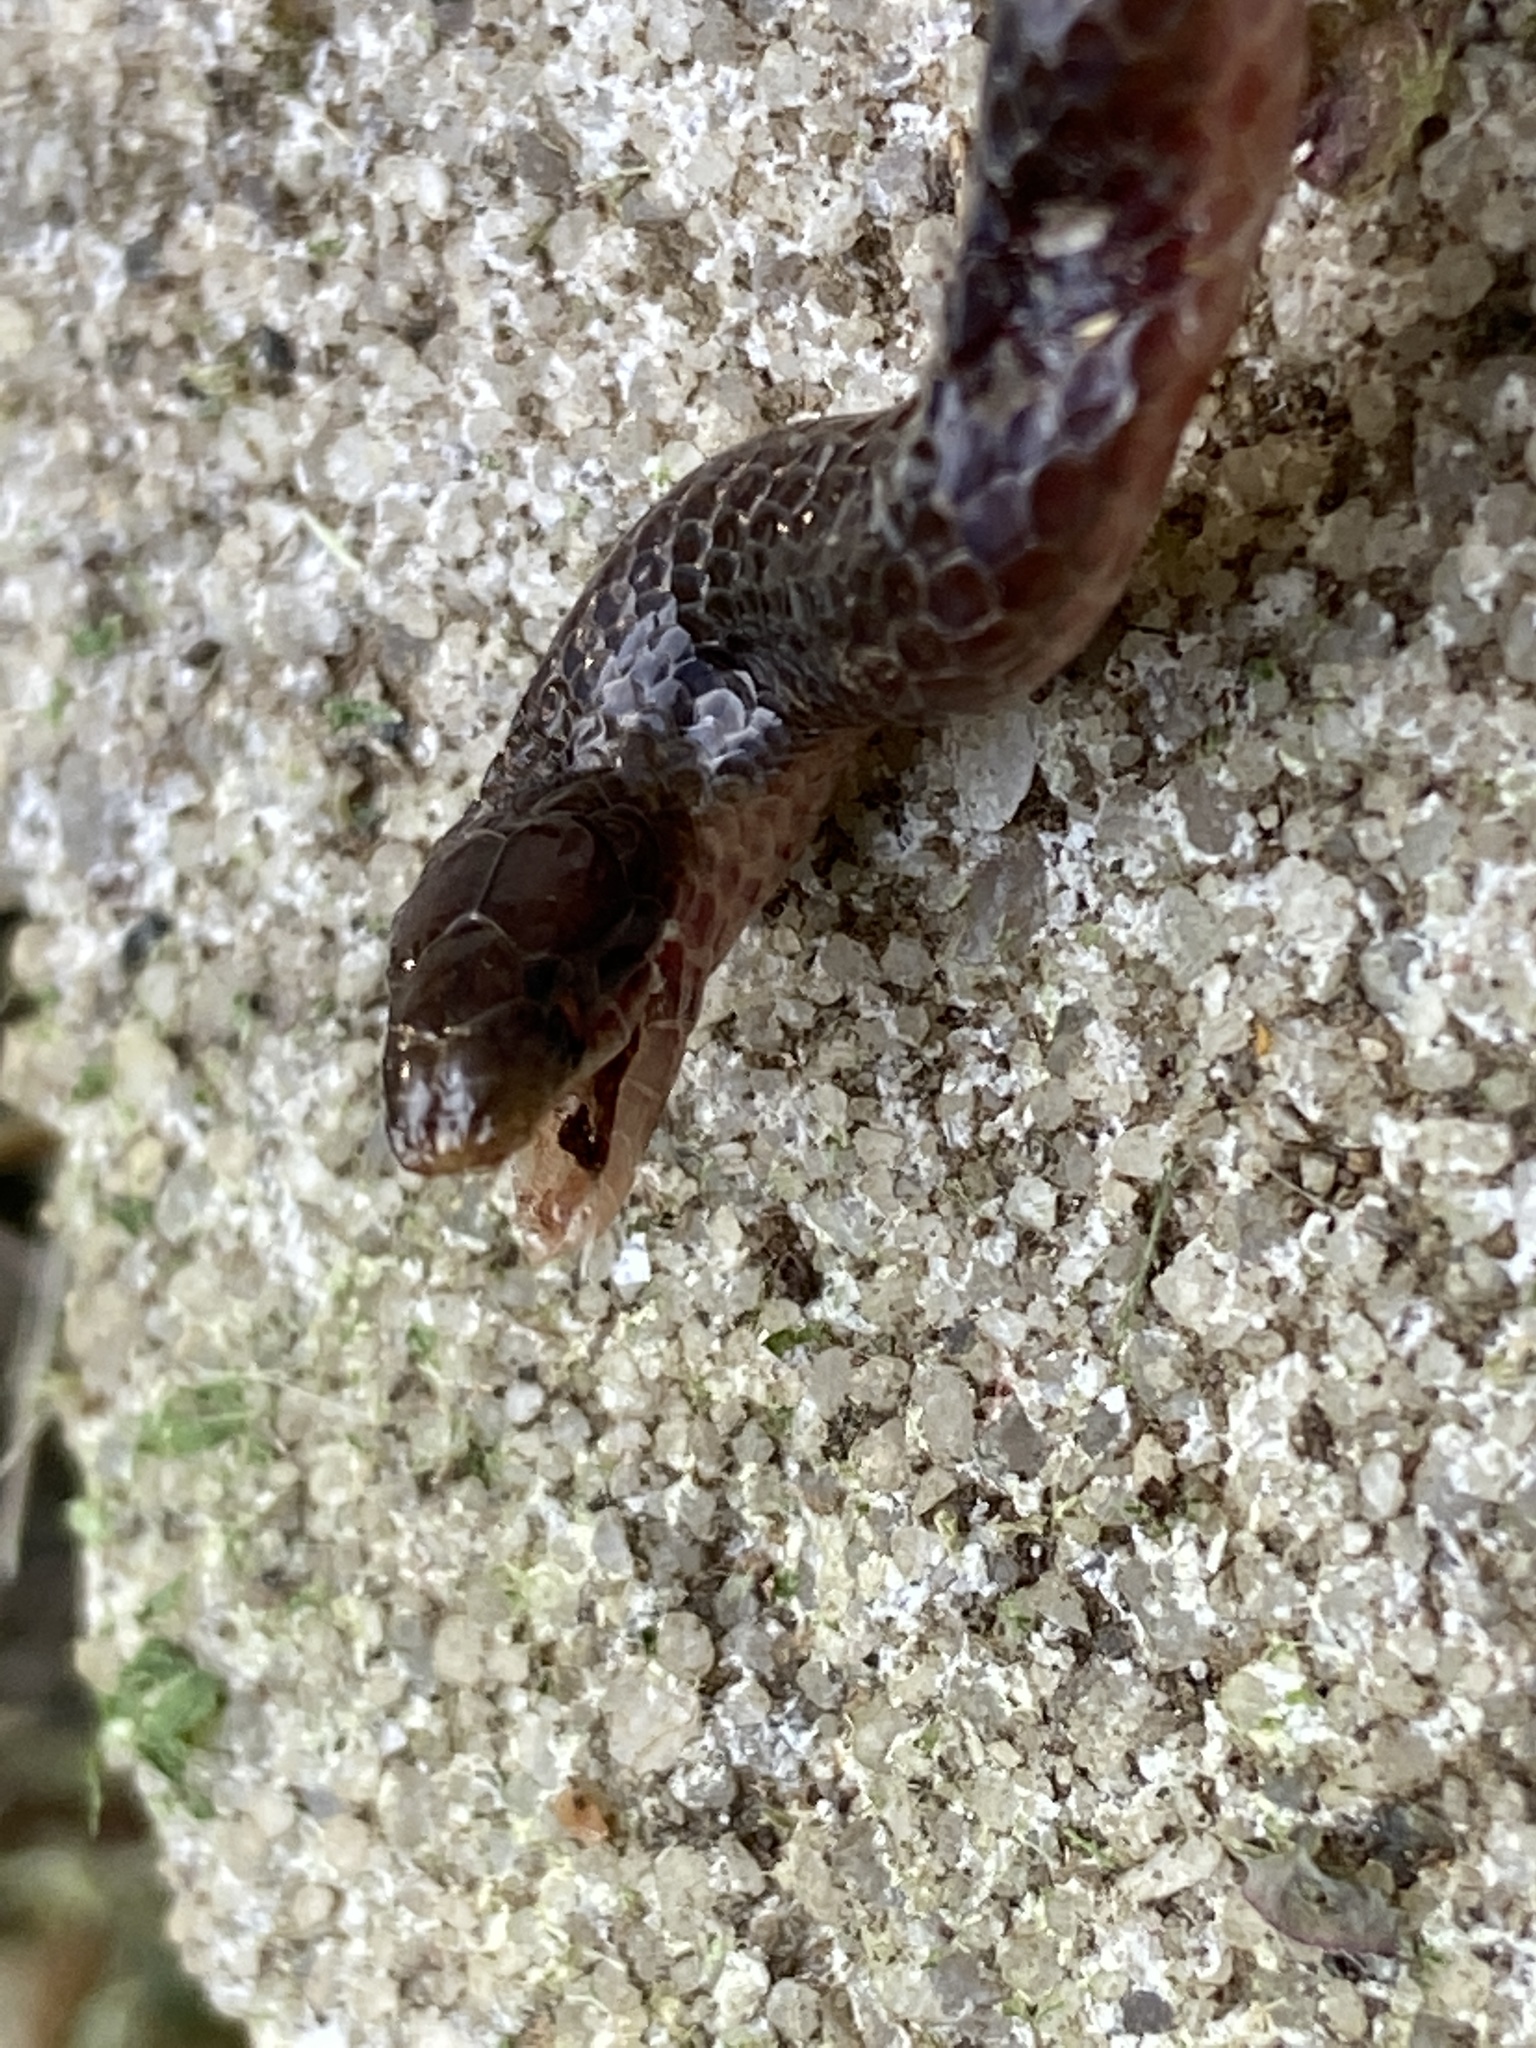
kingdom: Animalia
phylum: Chordata
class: Squamata
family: Colubridae
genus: Carphophis
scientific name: Carphophis amoenus
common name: Eastern worm snake
